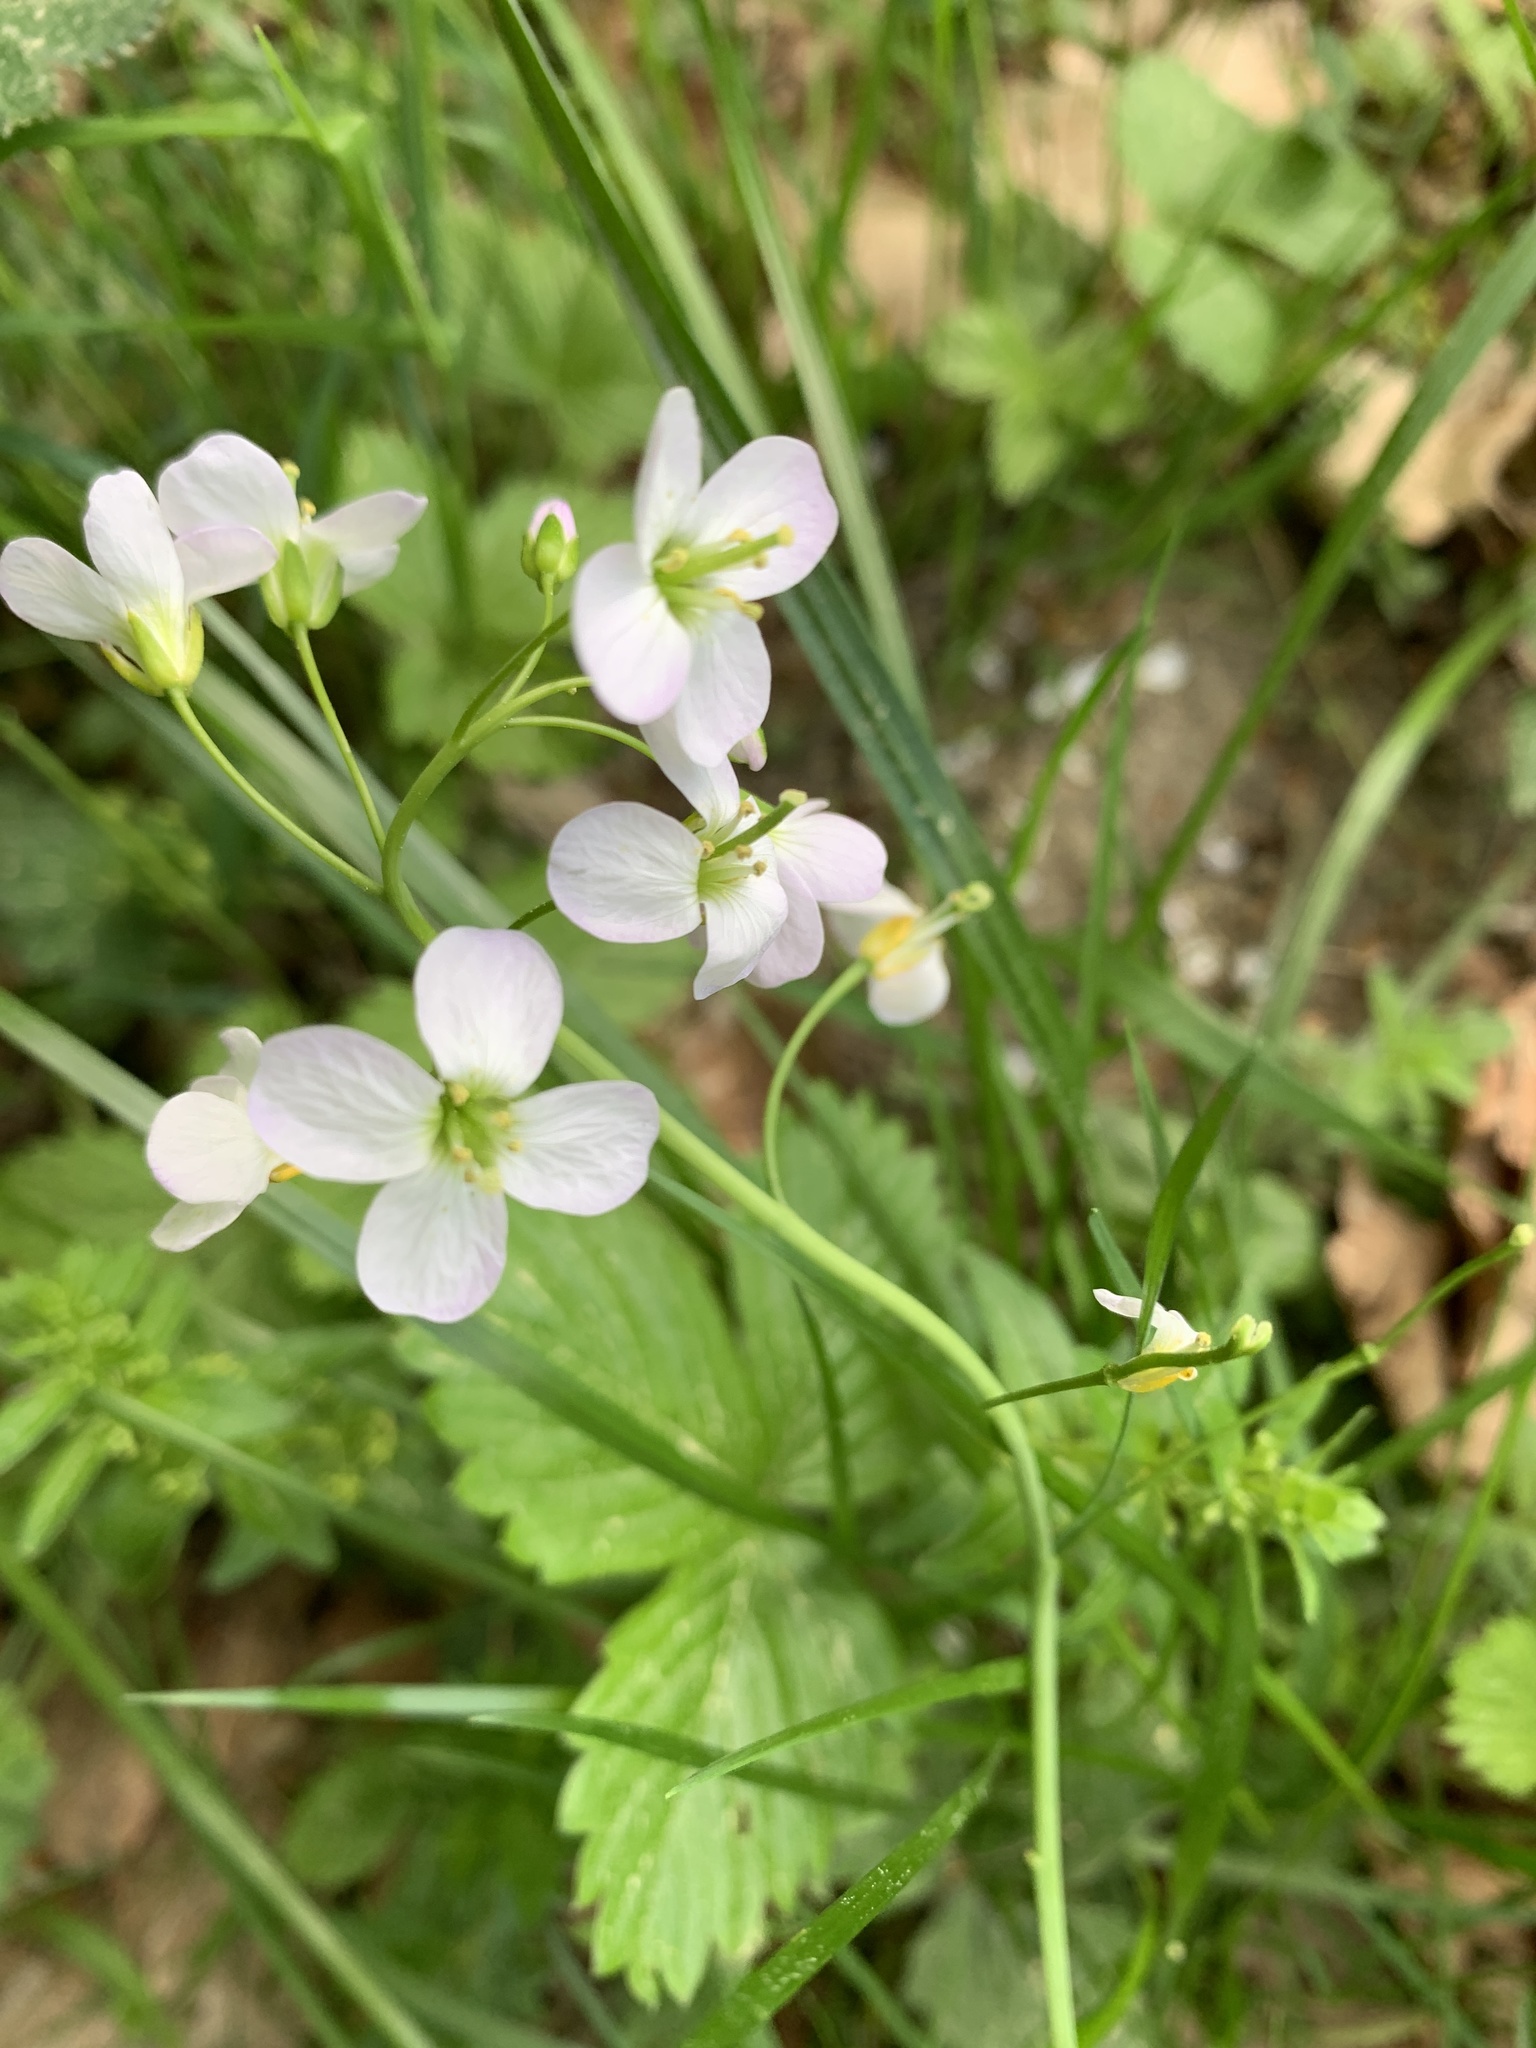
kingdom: Plantae
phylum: Tracheophyta
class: Magnoliopsida
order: Brassicales
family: Brassicaceae
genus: Cardamine
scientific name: Cardamine pratensis
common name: Cuckoo flower
